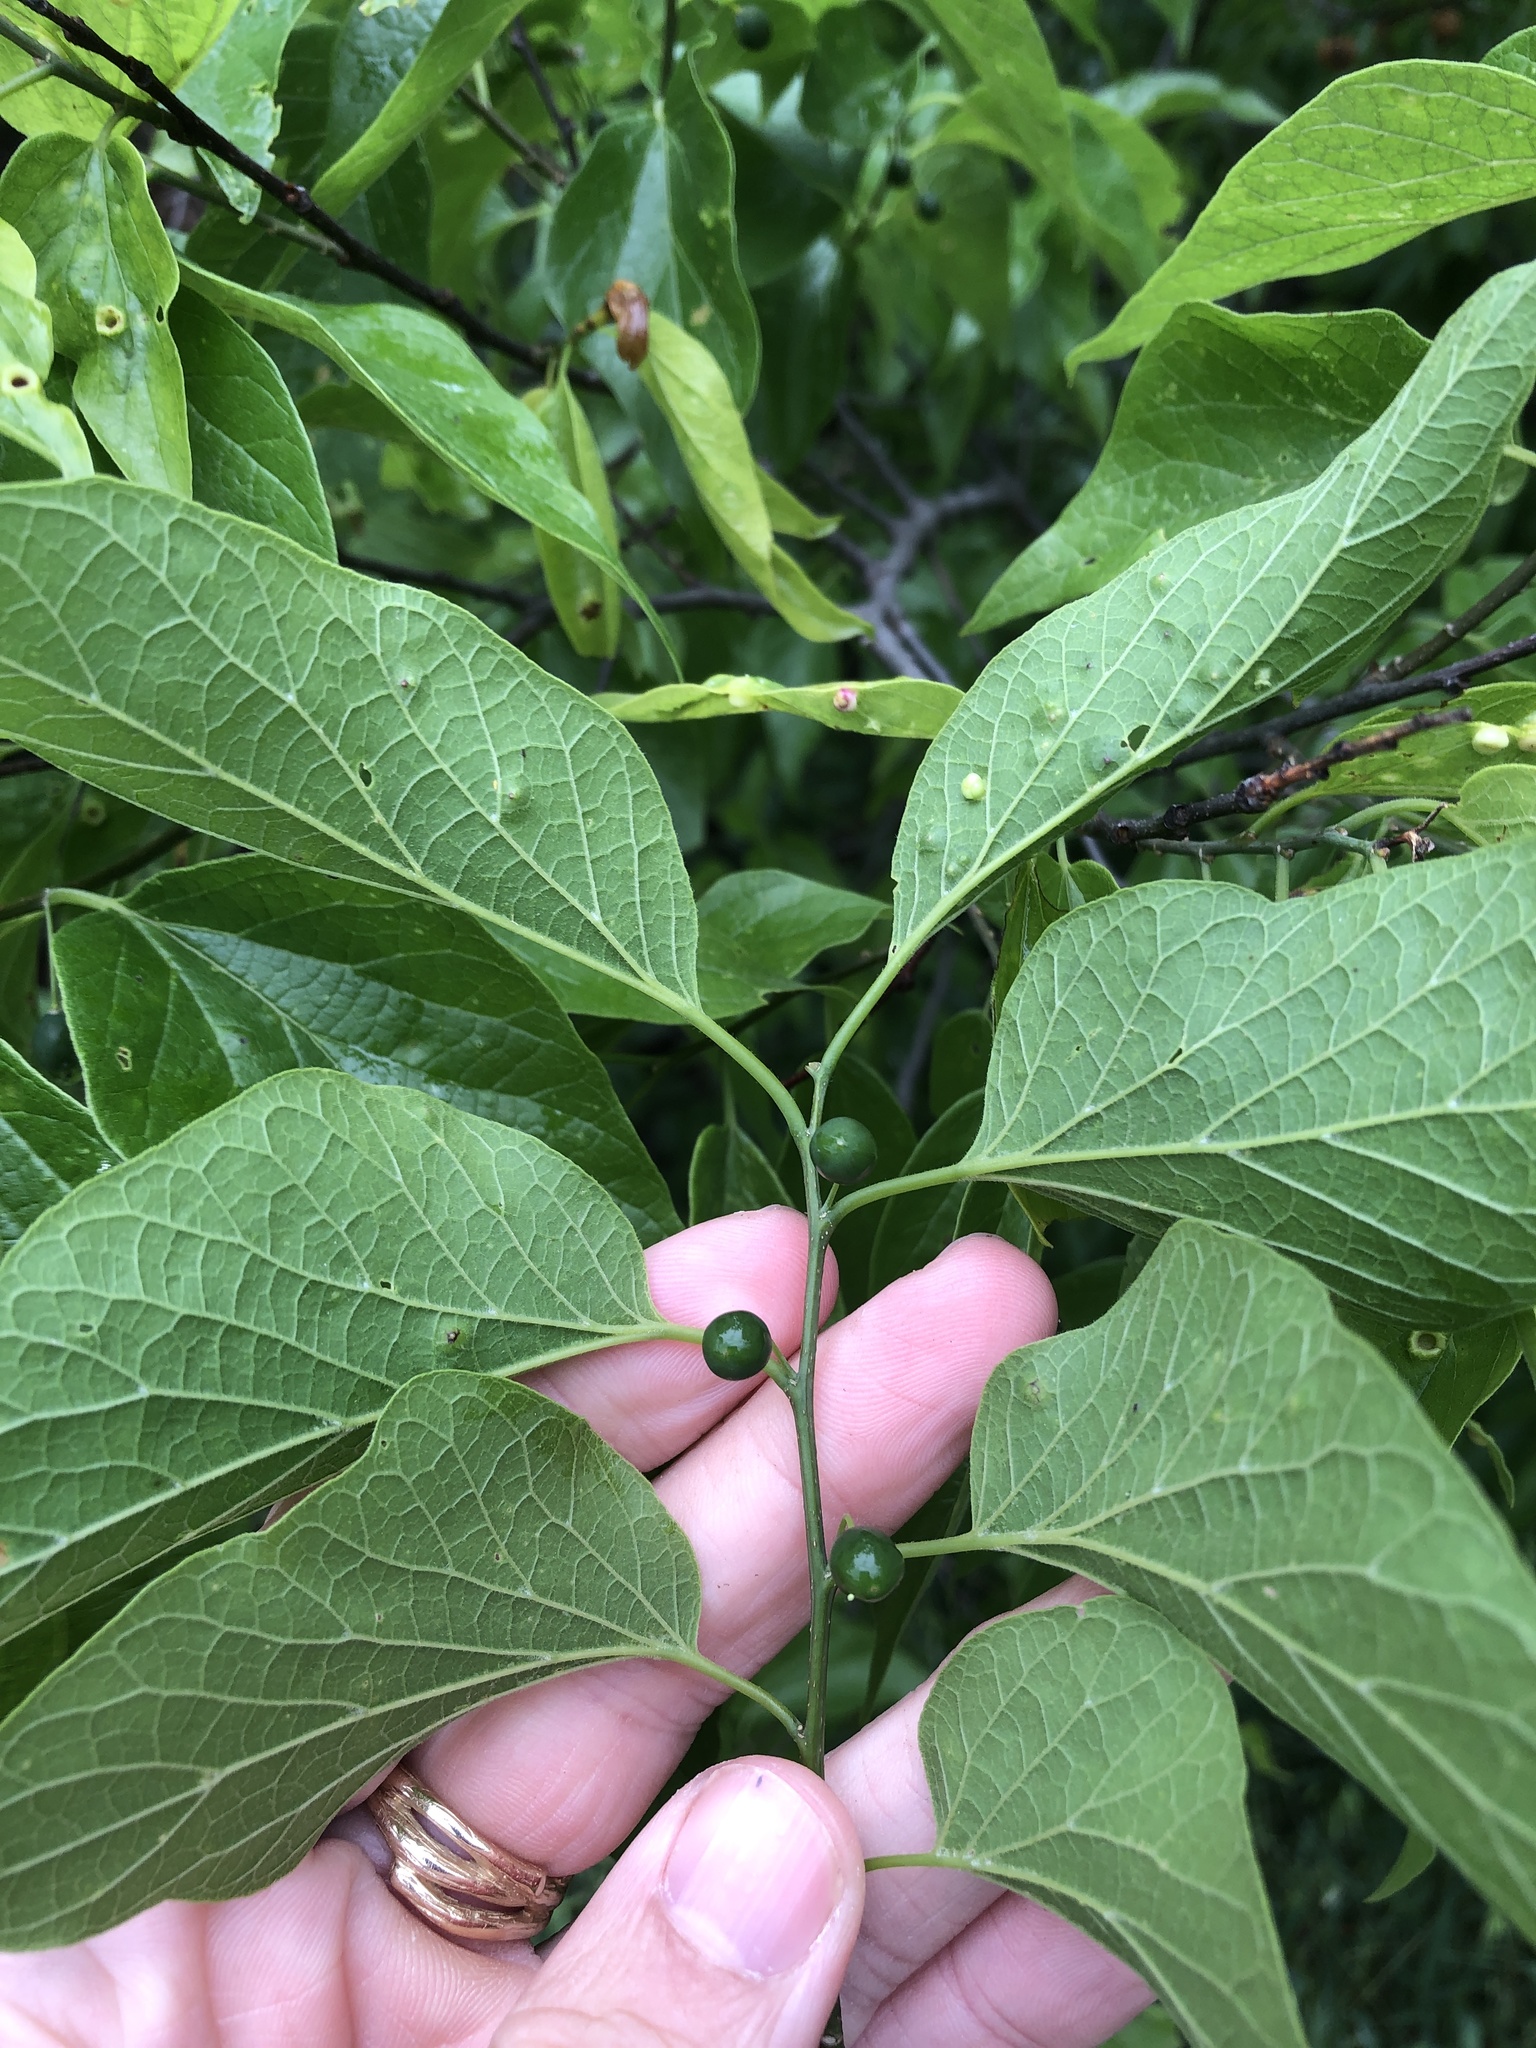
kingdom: Plantae
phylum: Tracheophyta
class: Magnoliopsida
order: Rosales
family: Cannabaceae
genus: Celtis
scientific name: Celtis laevigata
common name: Sugarberry
